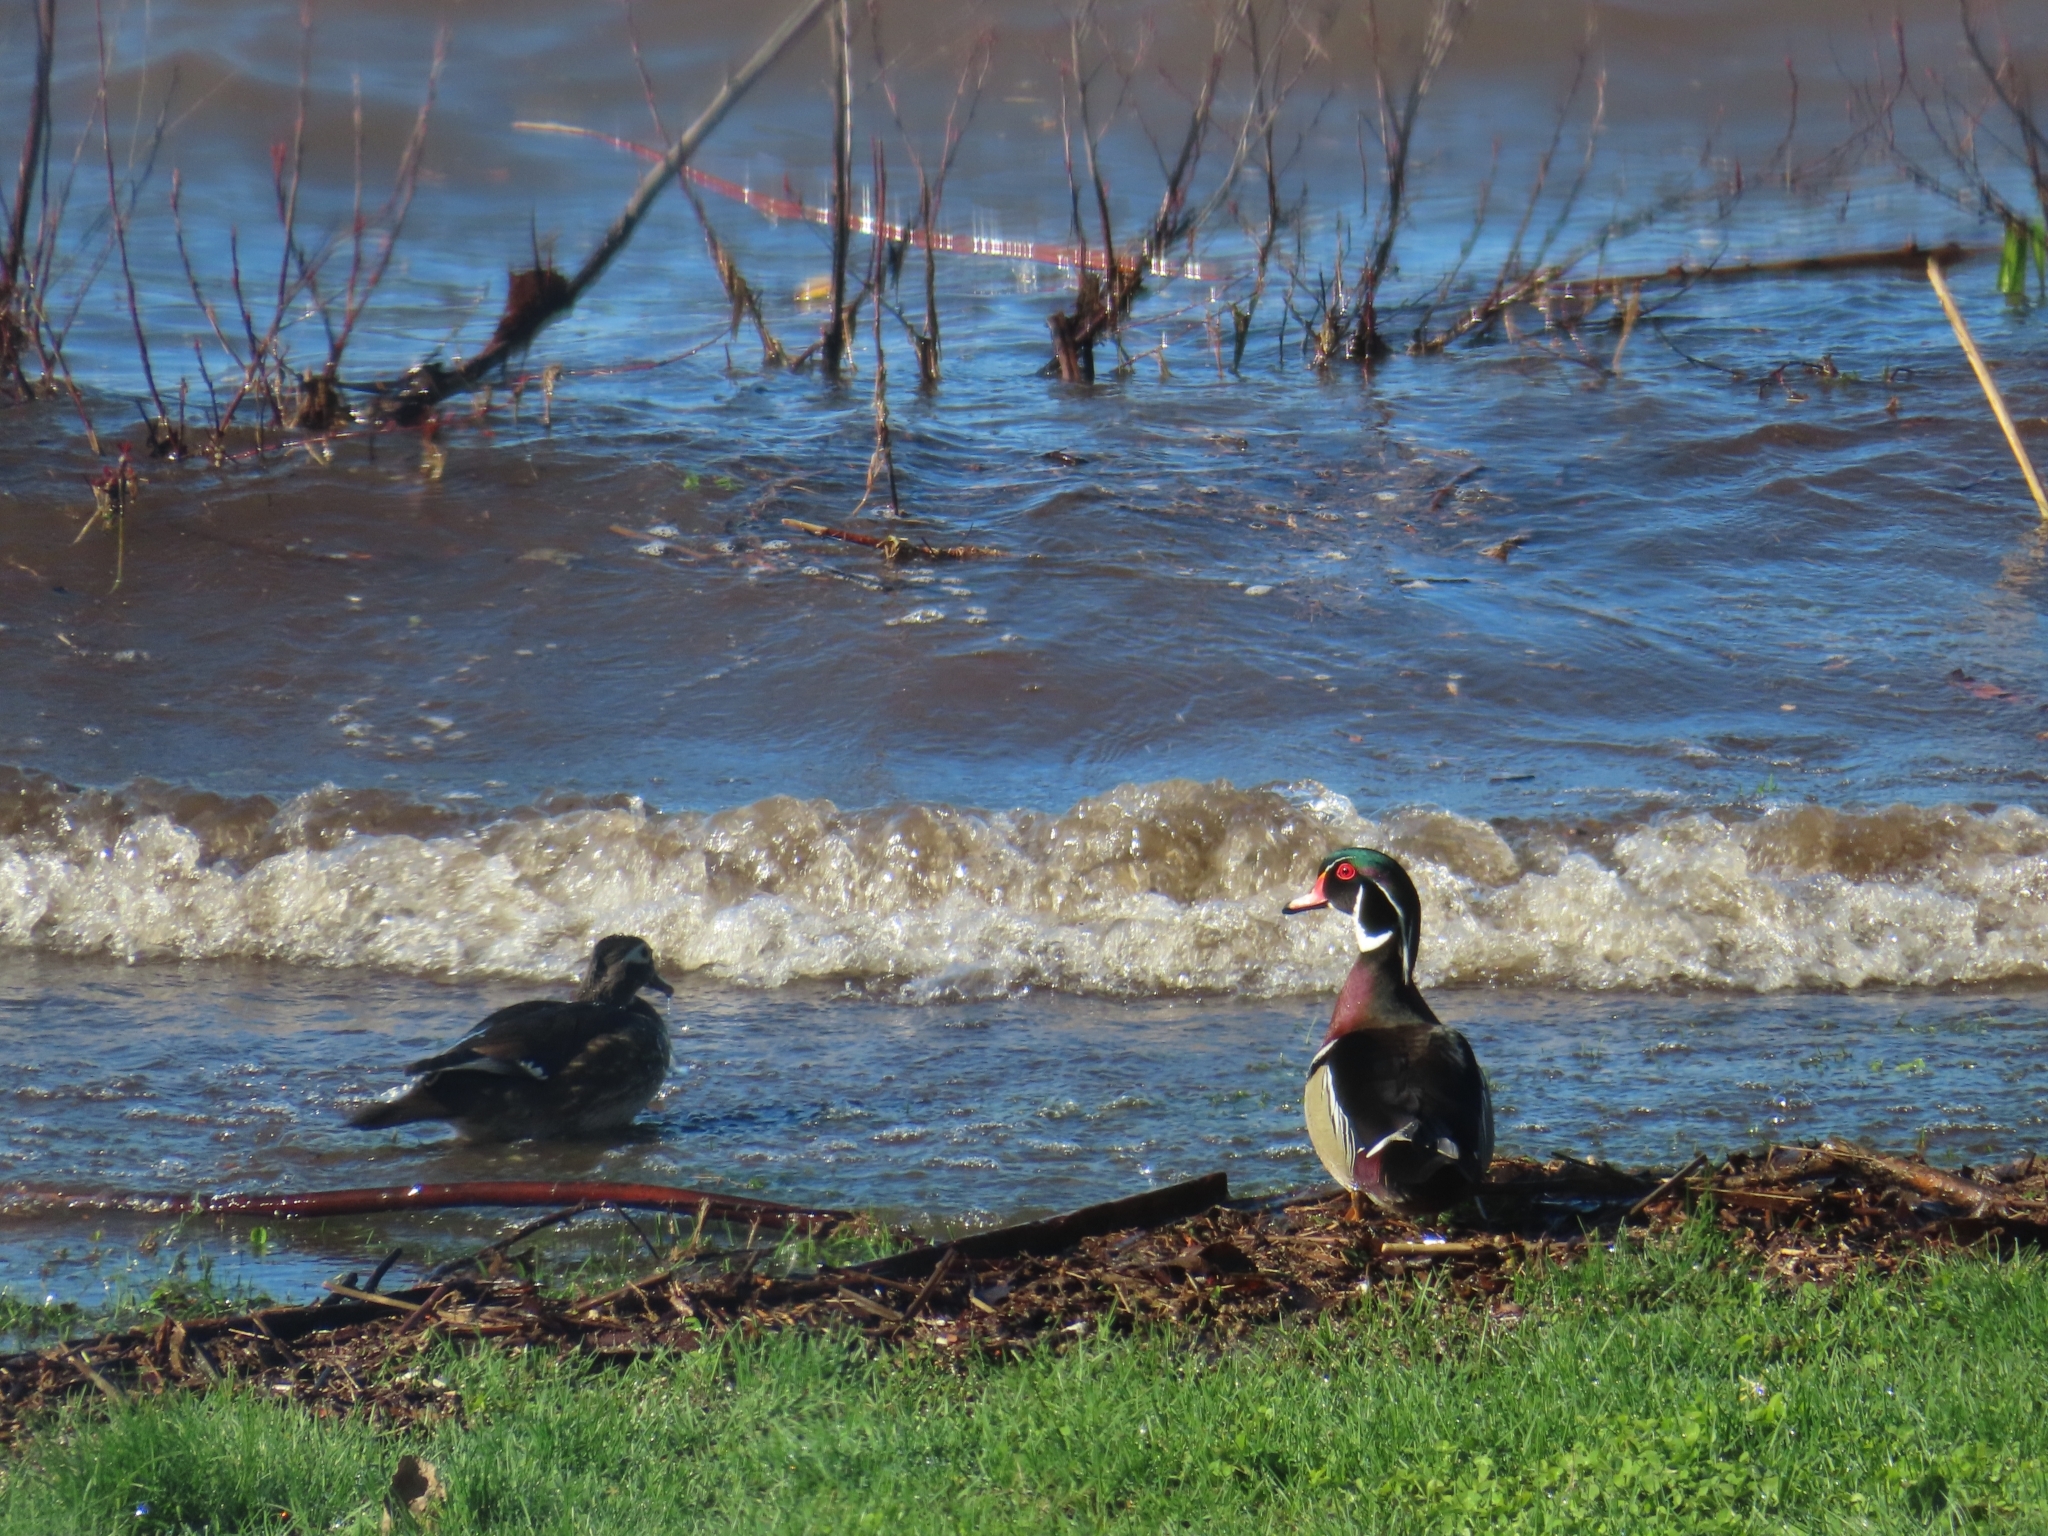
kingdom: Animalia
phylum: Chordata
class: Aves
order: Anseriformes
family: Anatidae
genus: Aix
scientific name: Aix sponsa
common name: Wood duck
